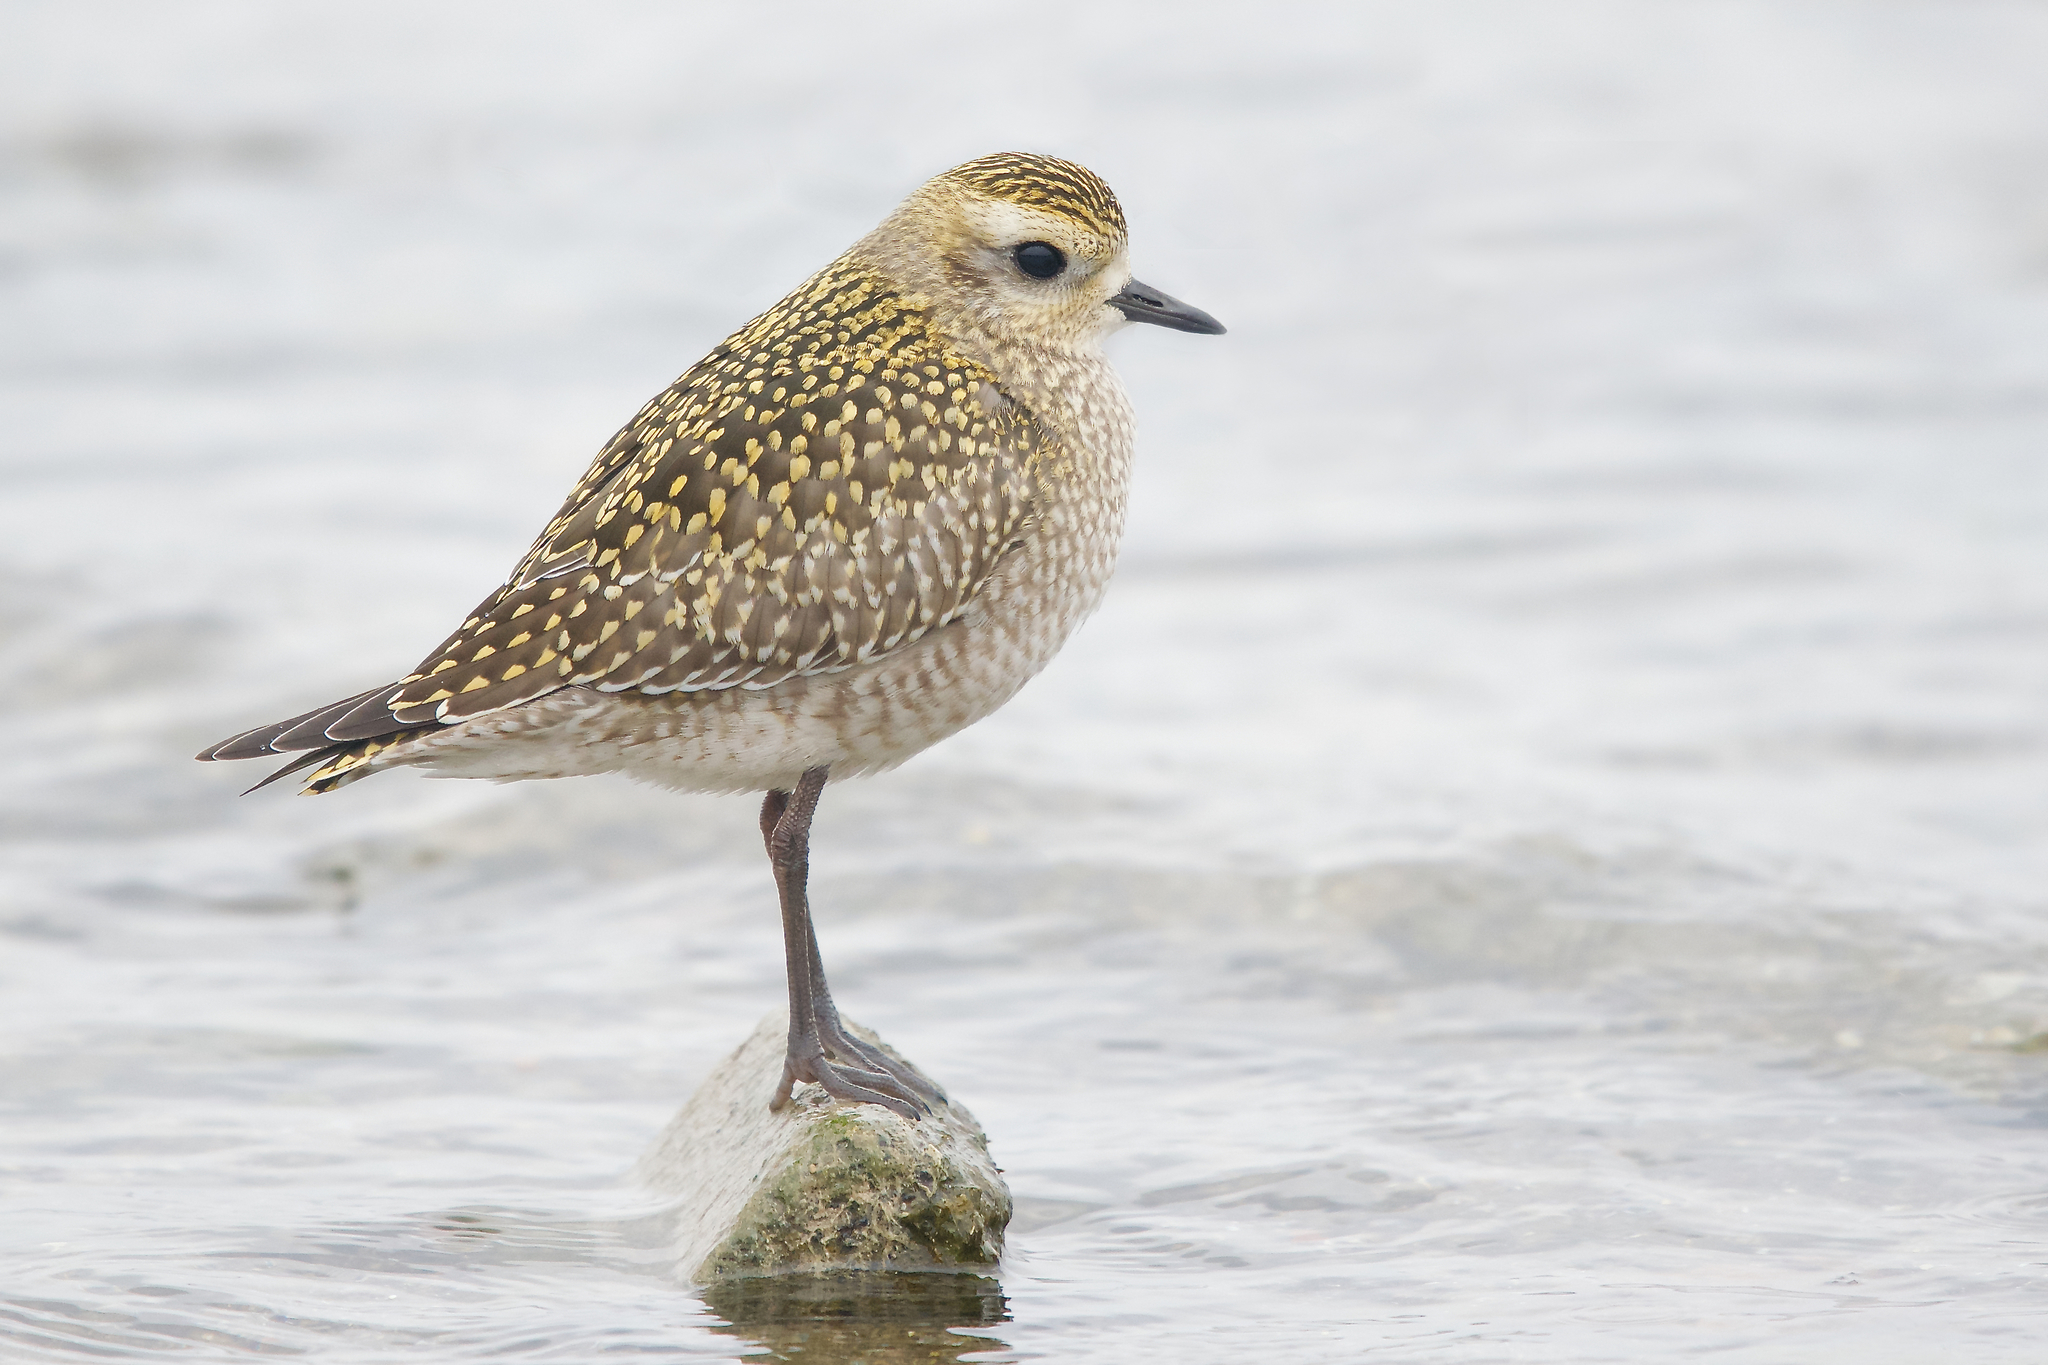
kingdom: Animalia
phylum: Chordata
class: Aves
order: Charadriiformes
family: Charadriidae
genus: Pluvialis
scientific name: Pluvialis dominica
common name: American golden plover
